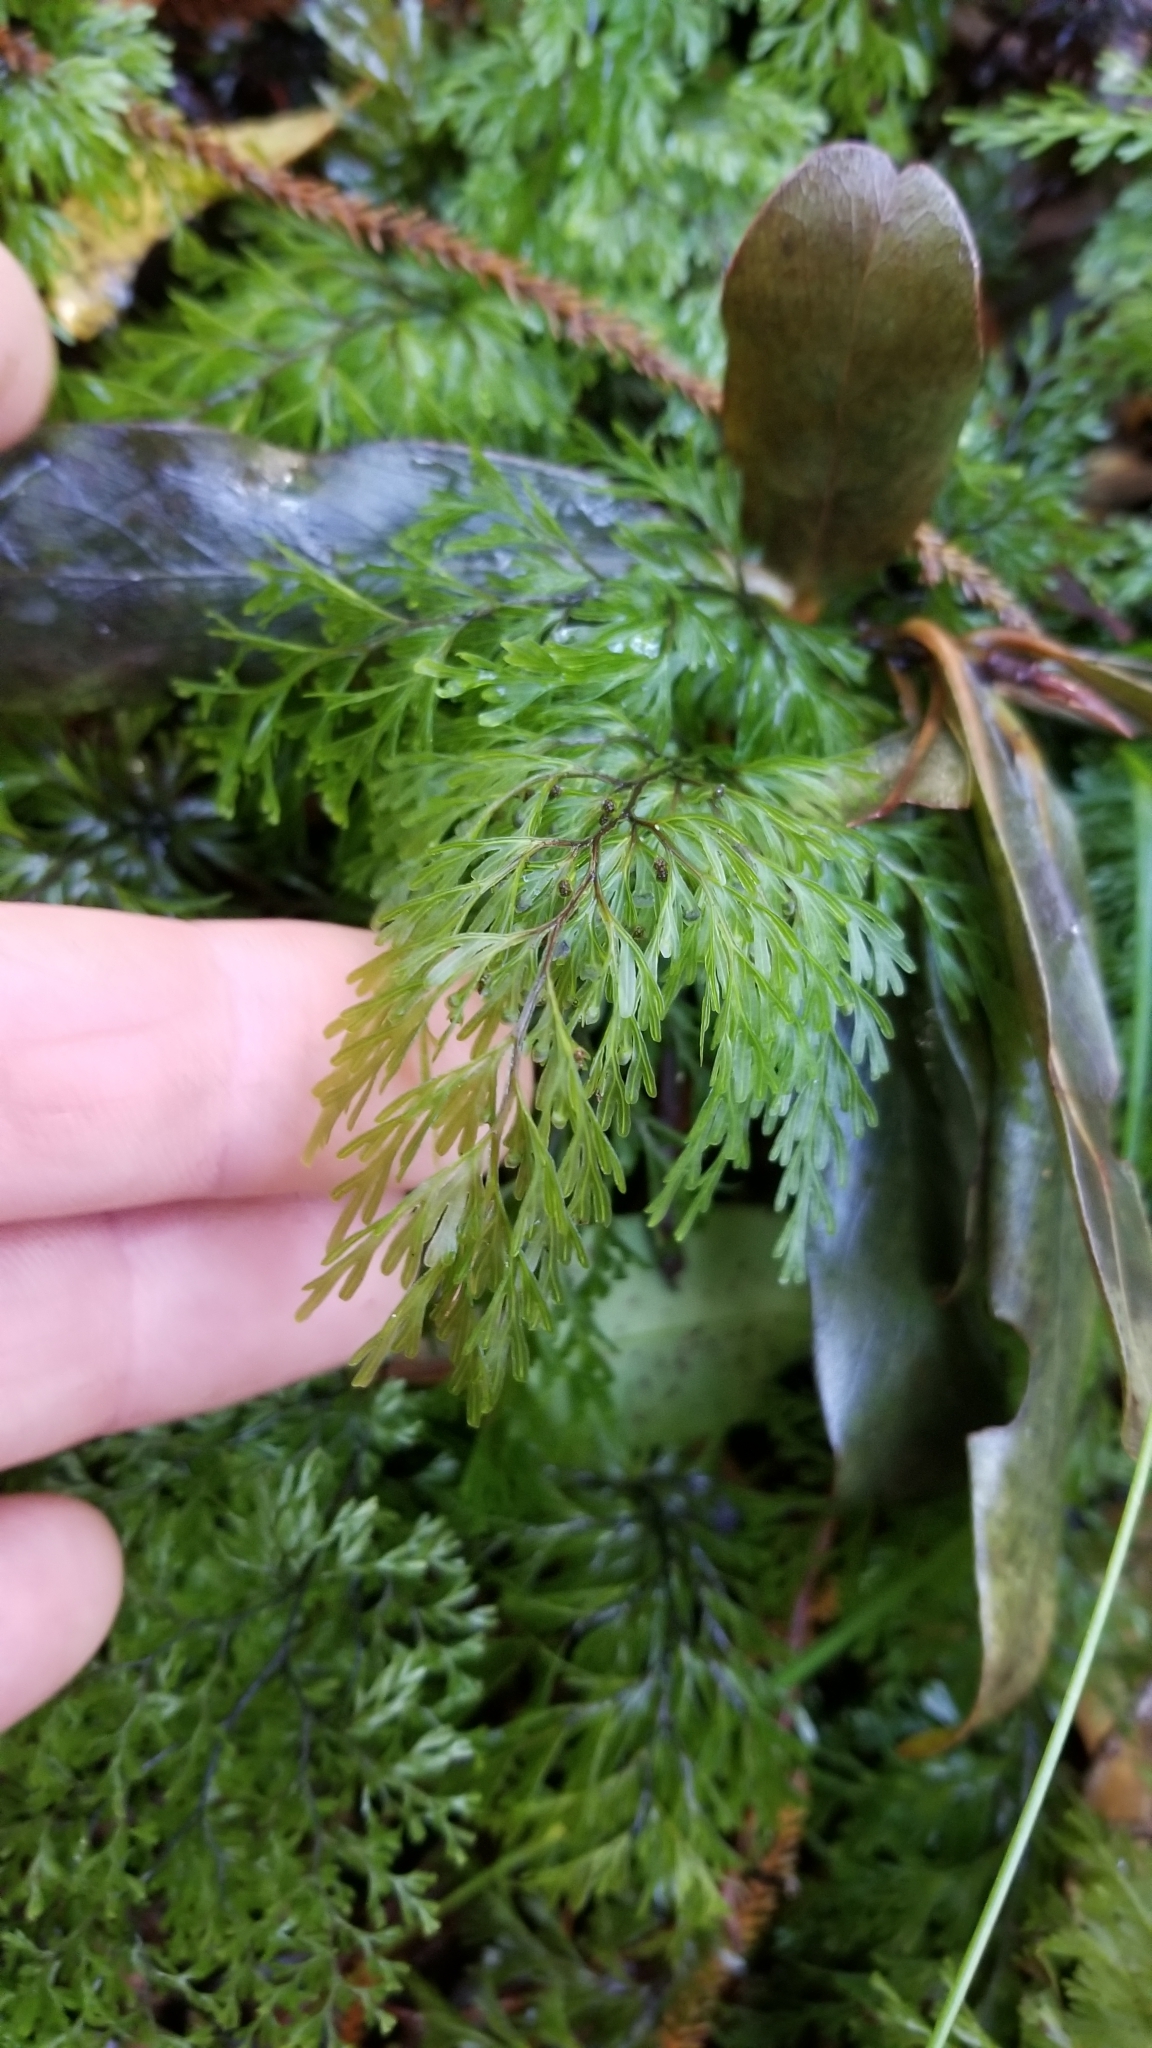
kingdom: Plantae
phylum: Tracheophyta
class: Polypodiopsida
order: Hymenophyllales
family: Hymenophyllaceae
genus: Hymenophyllum
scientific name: Hymenophyllum demissum
